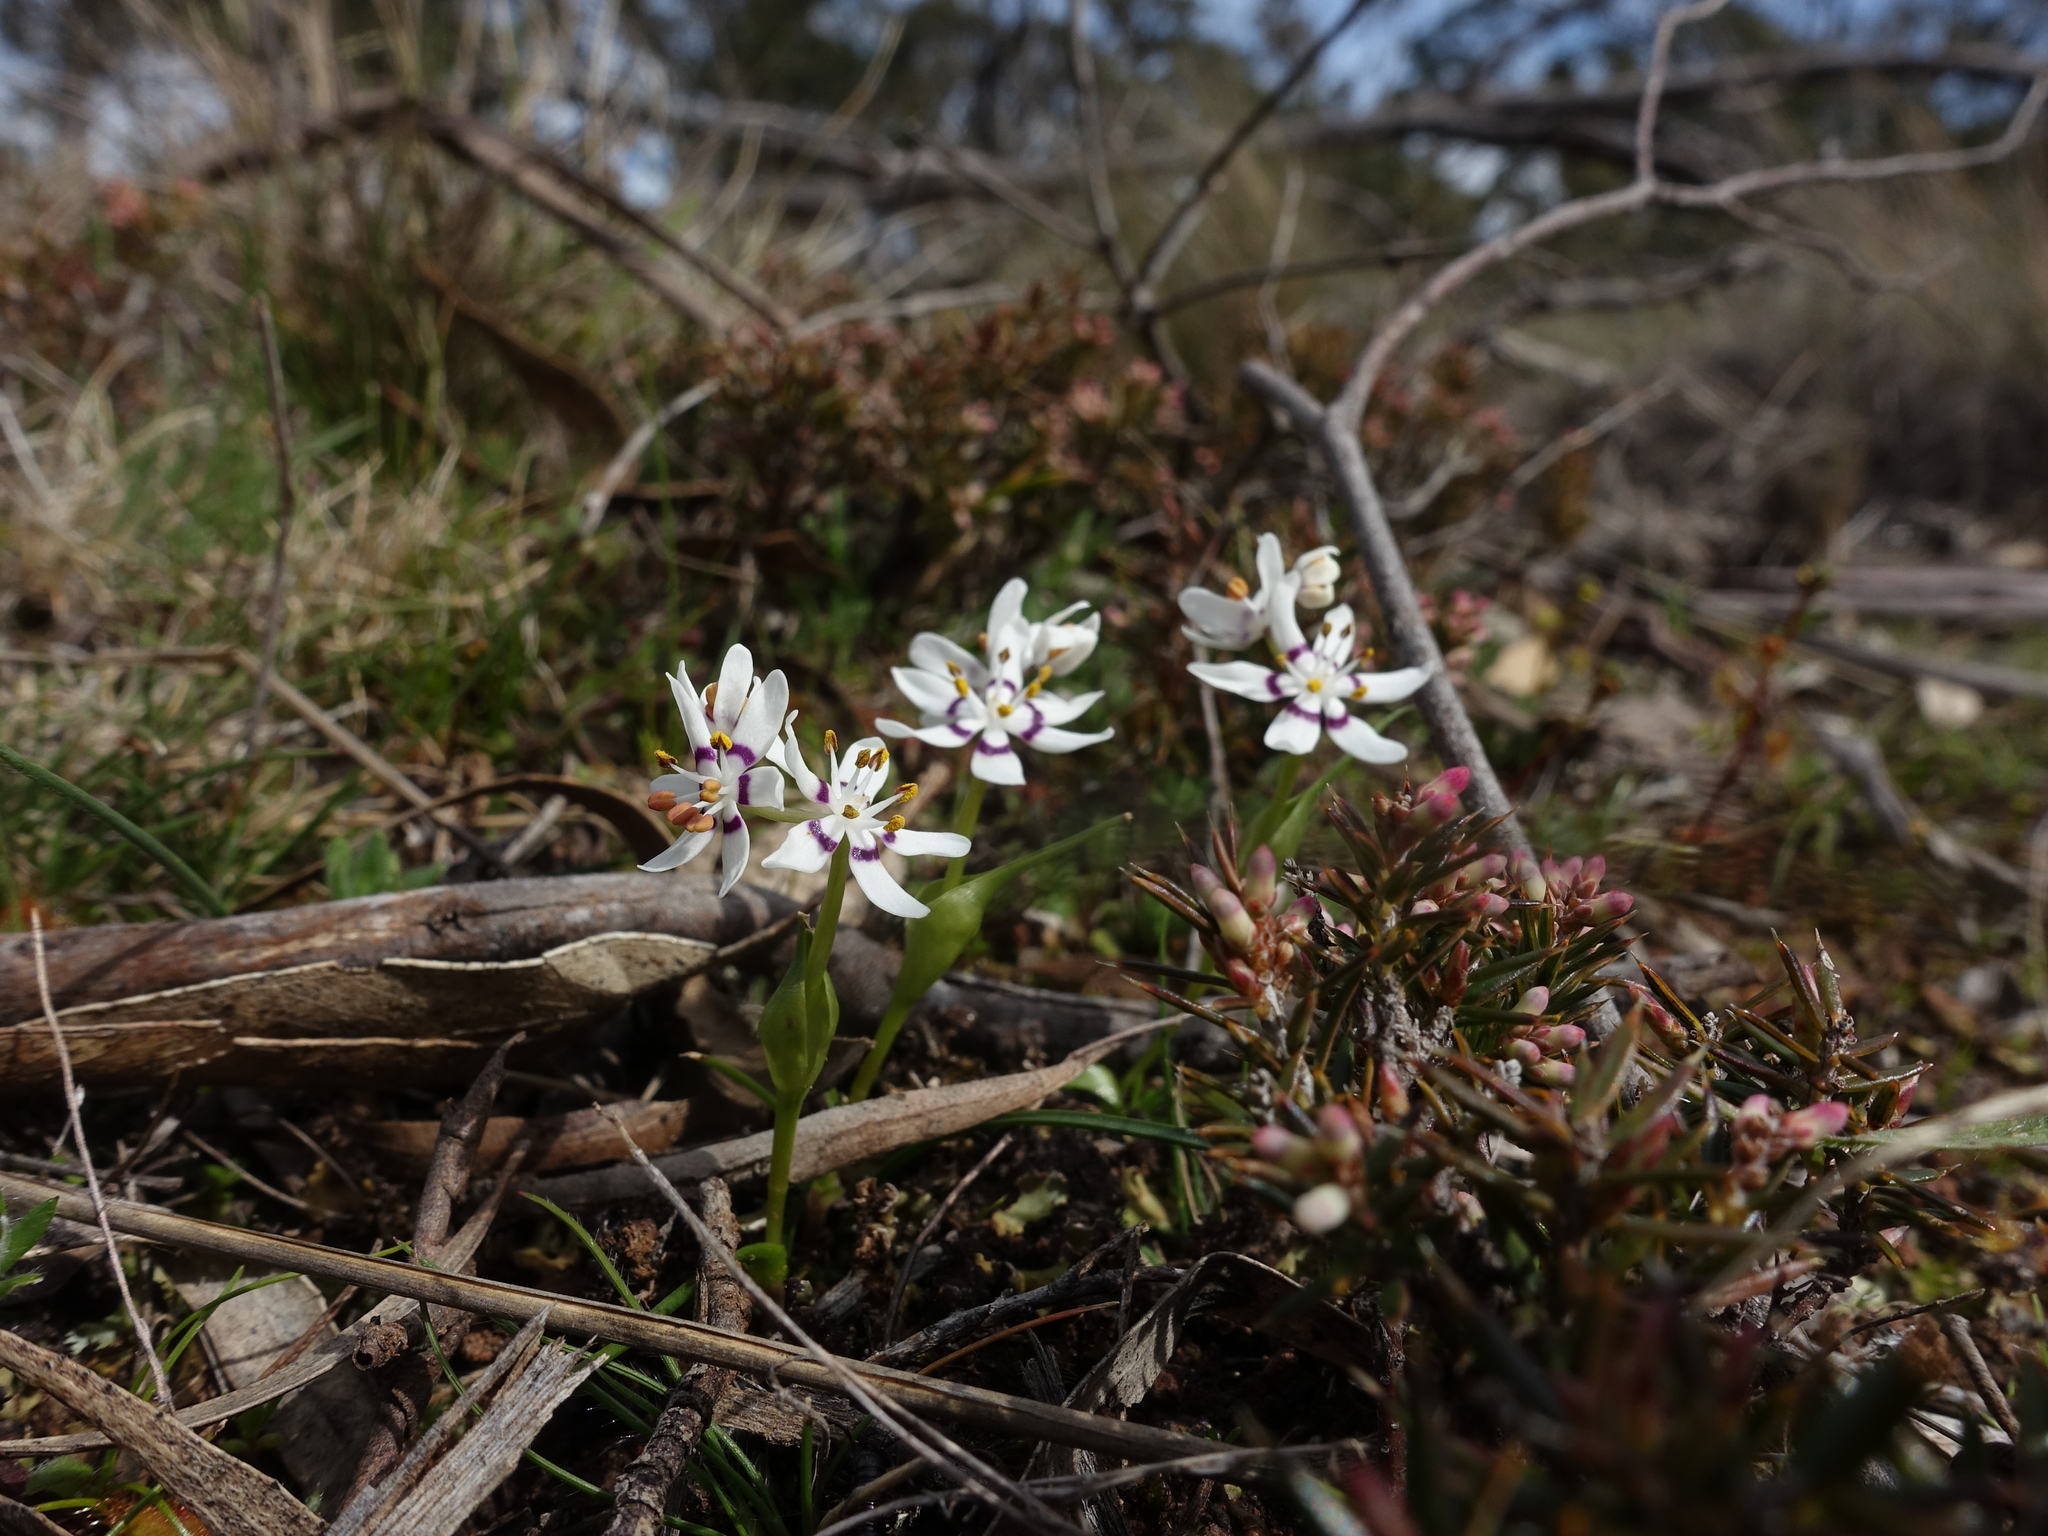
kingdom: Plantae
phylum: Tracheophyta
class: Liliopsida
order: Liliales
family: Colchicaceae
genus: Wurmbea
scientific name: Wurmbea dioica
